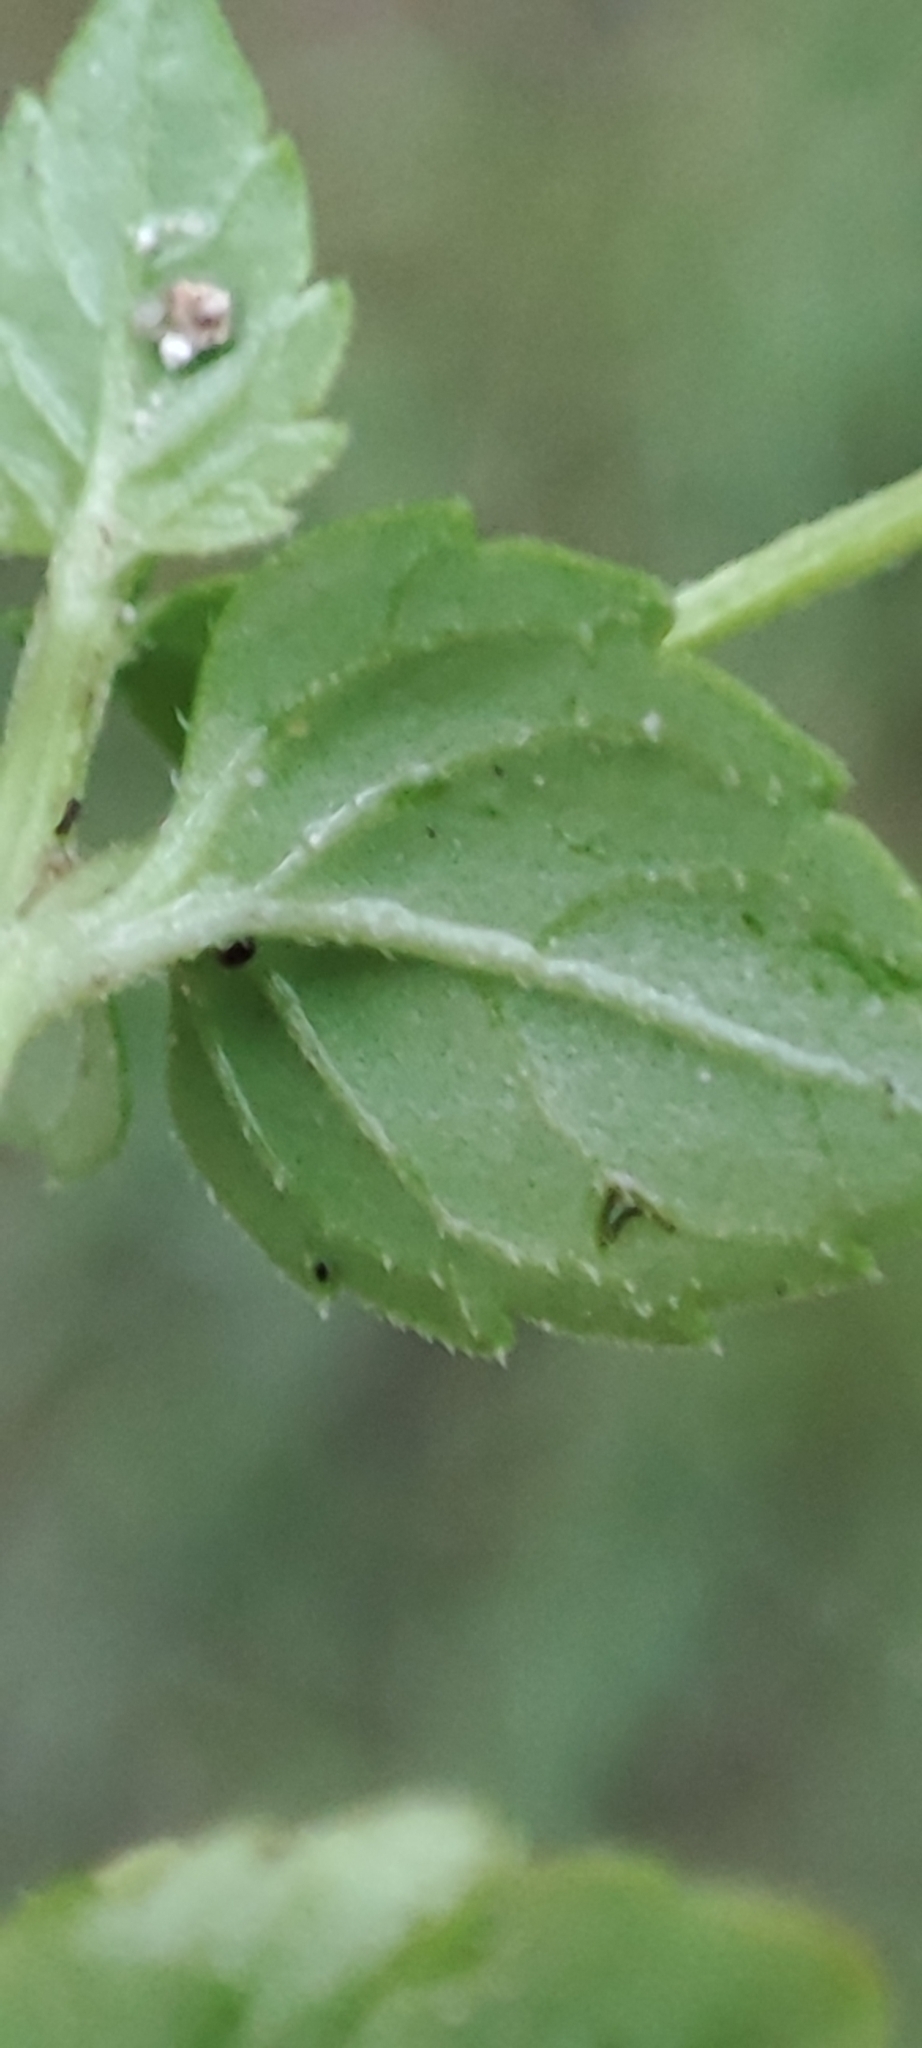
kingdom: Plantae
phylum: Tracheophyta
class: Magnoliopsida
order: Lamiales
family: Linderniaceae
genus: Torenia
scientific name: Torenia crustacea
